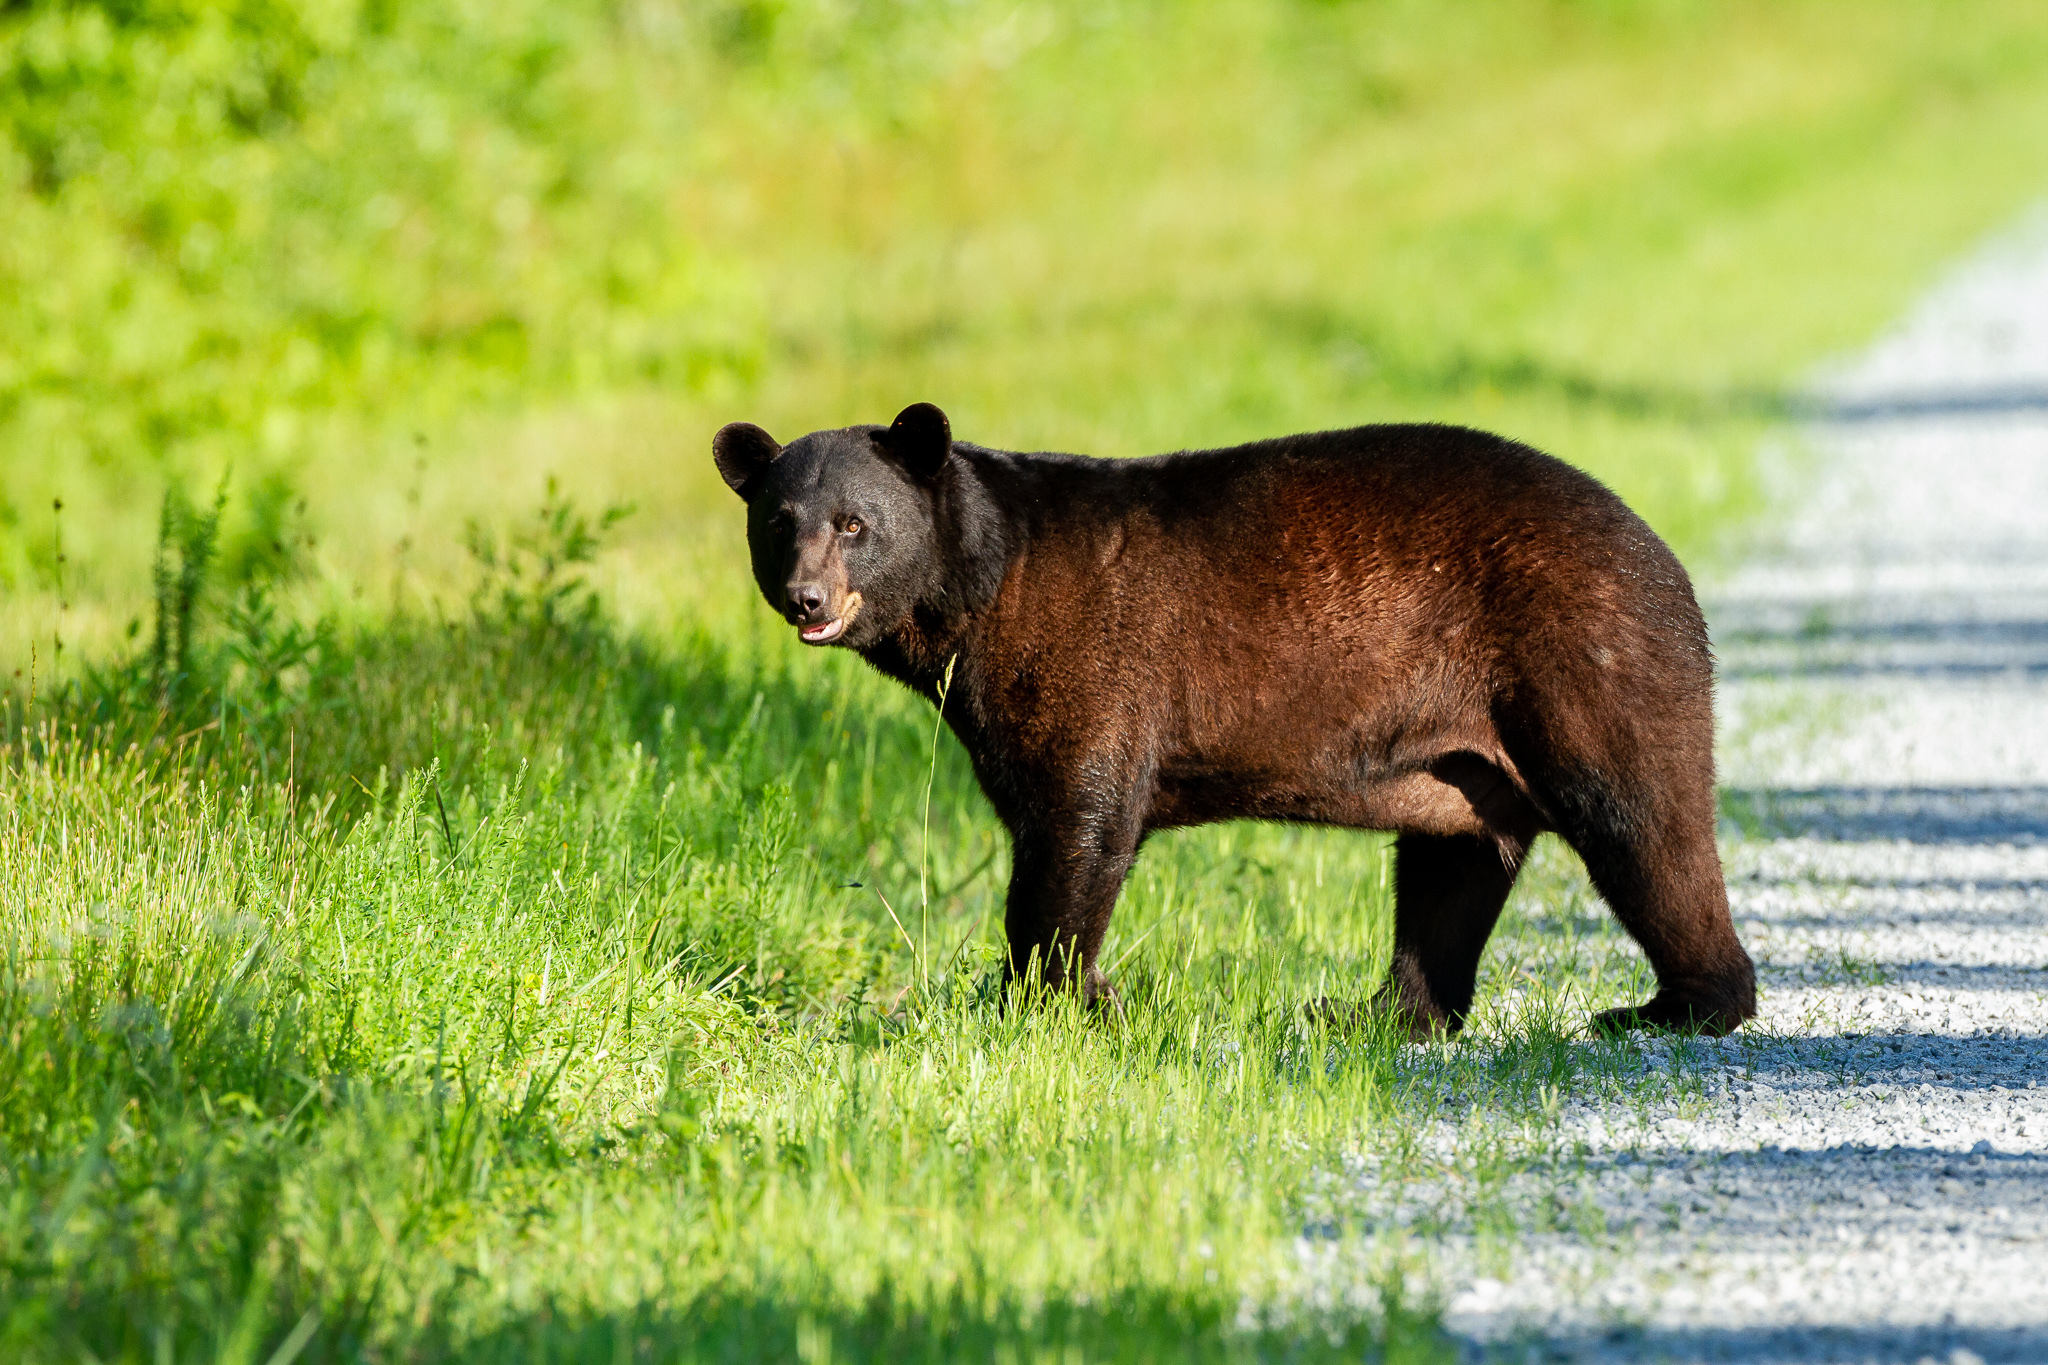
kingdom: Animalia
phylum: Chordata
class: Mammalia
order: Carnivora
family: Ursidae
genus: Ursus
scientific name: Ursus americanus
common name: American black bear
